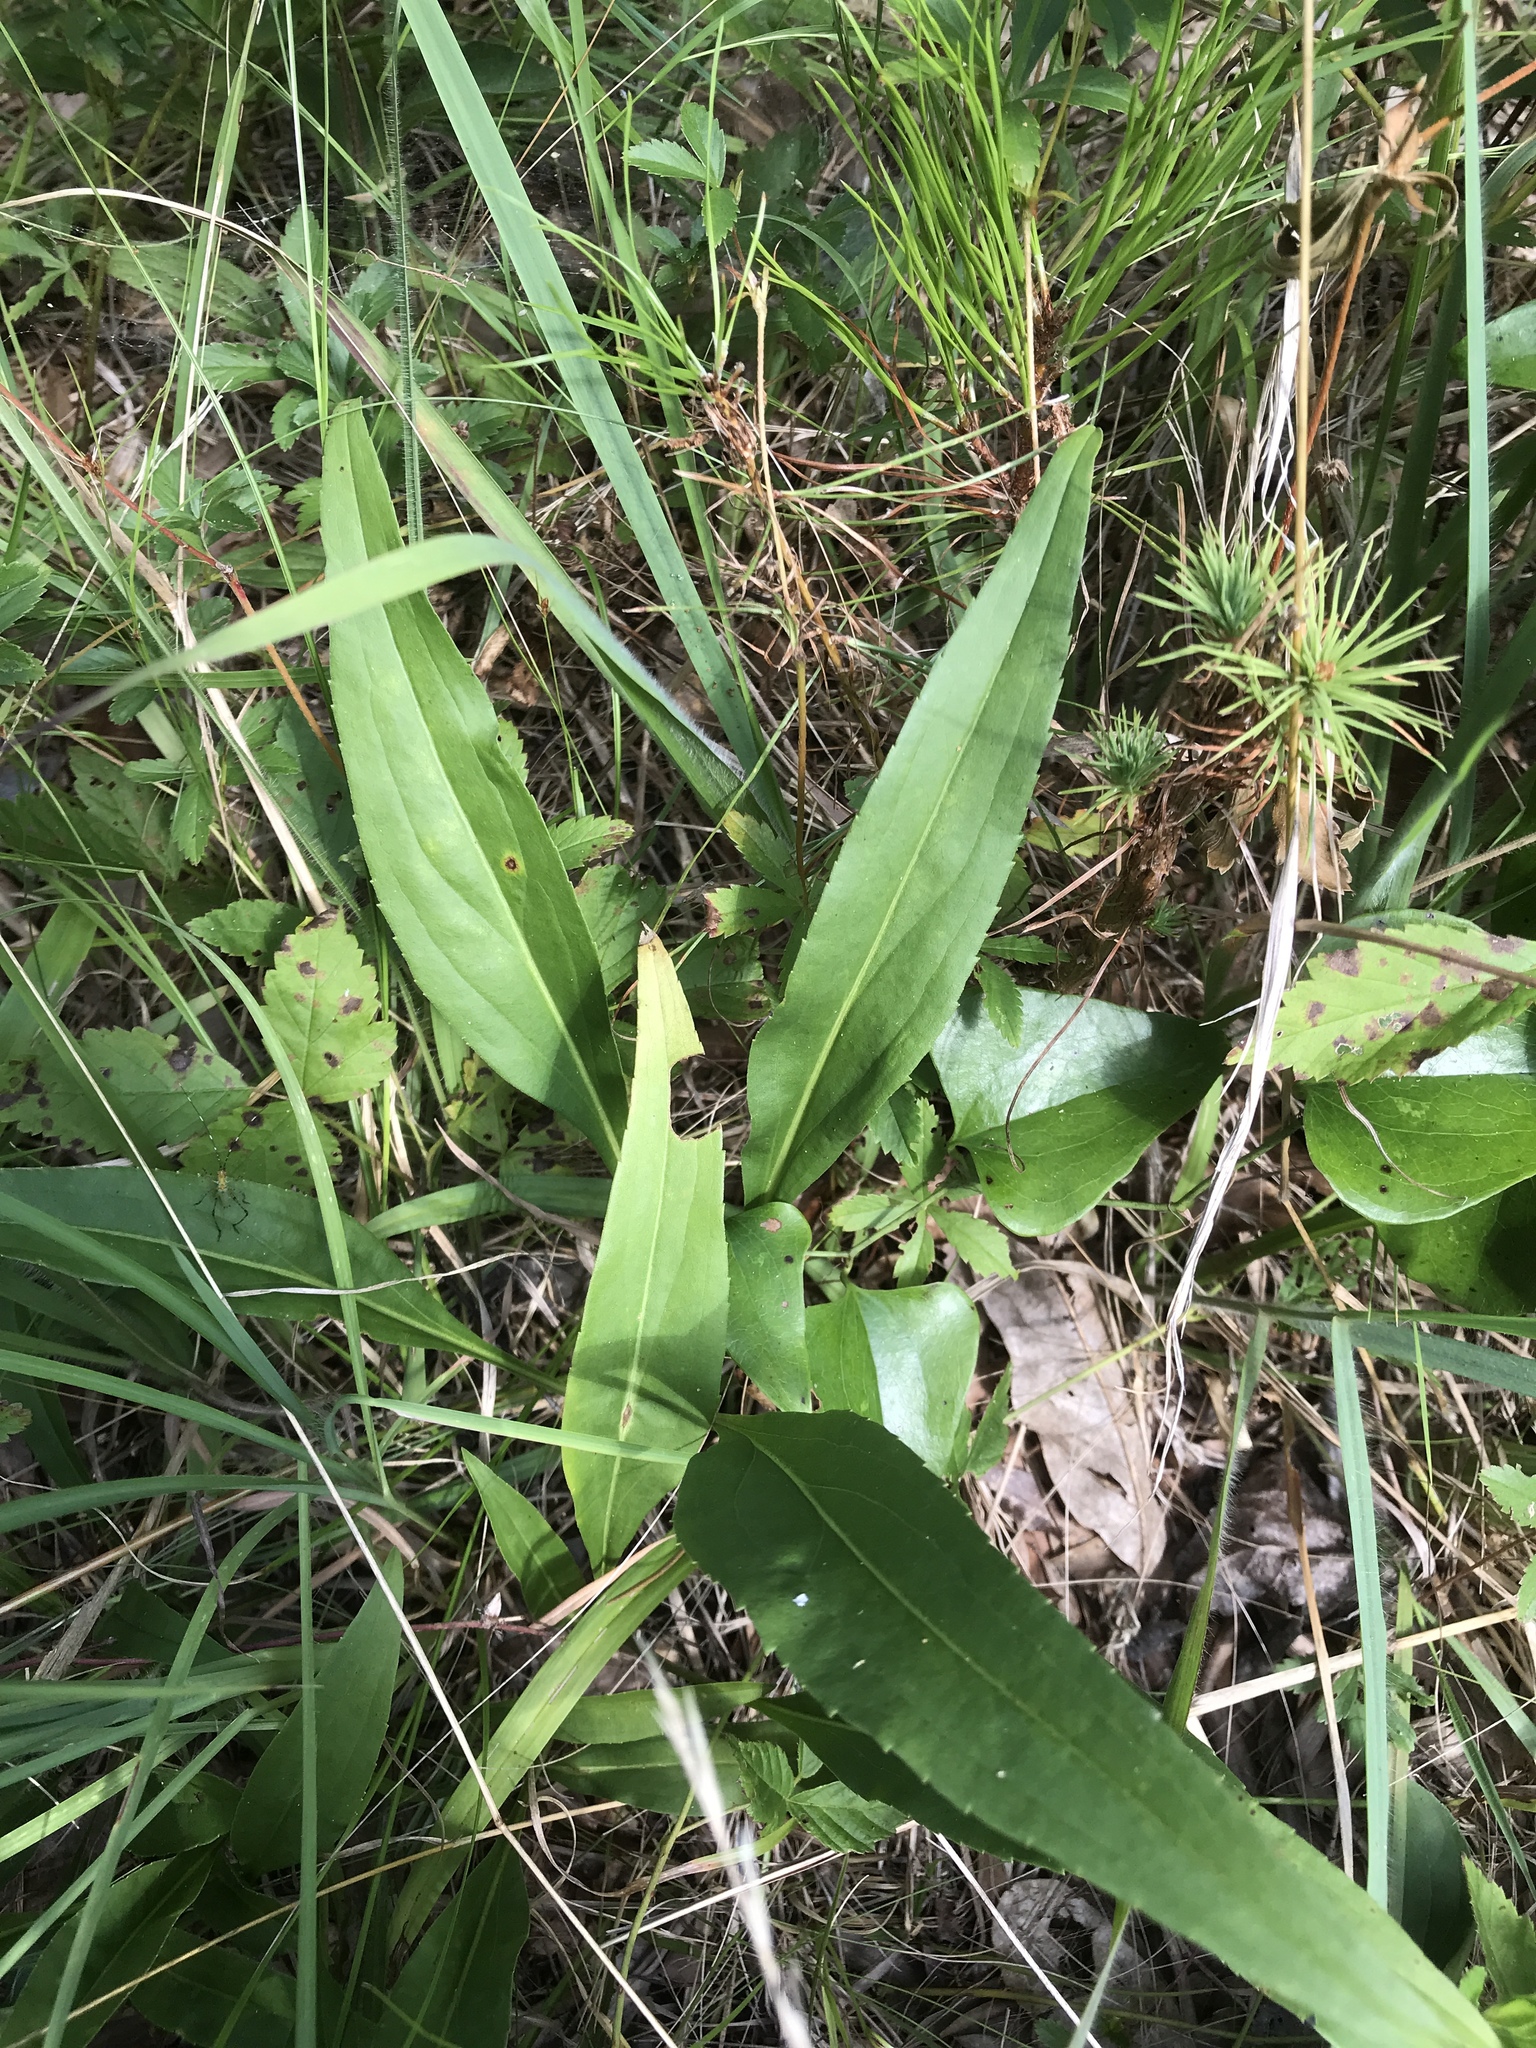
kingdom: Plantae
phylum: Tracheophyta
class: Magnoliopsida
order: Asterales
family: Asteraceae
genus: Echinacea
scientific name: Echinacea laevigata
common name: Smooth coneflower
